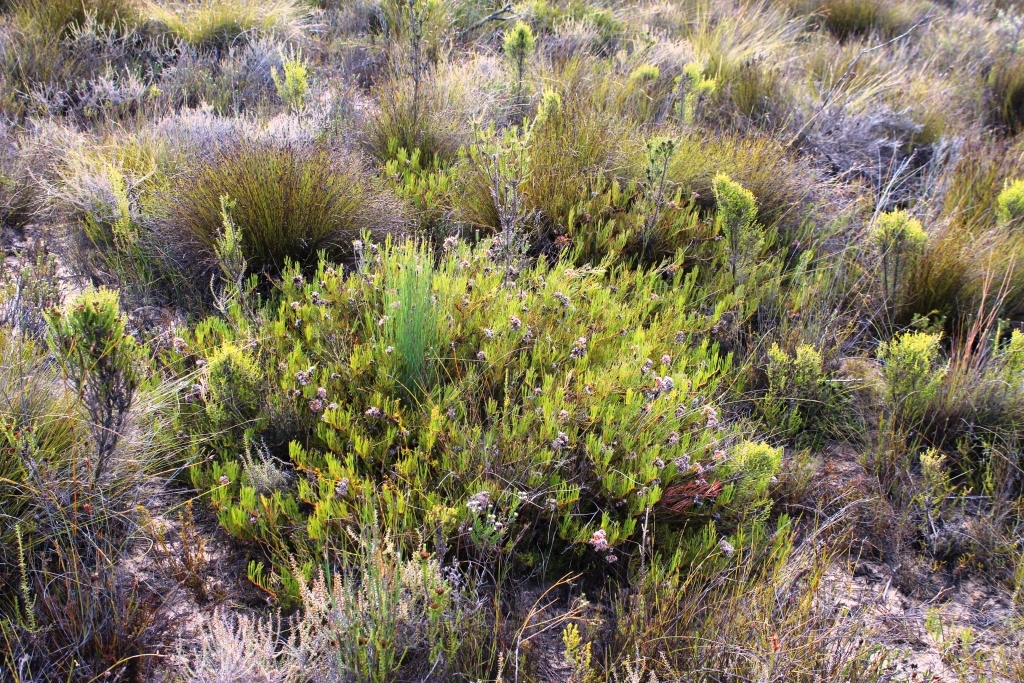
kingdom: Plantae
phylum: Tracheophyta
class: Magnoliopsida
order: Proteales
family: Proteaceae
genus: Serruria
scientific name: Serruria
